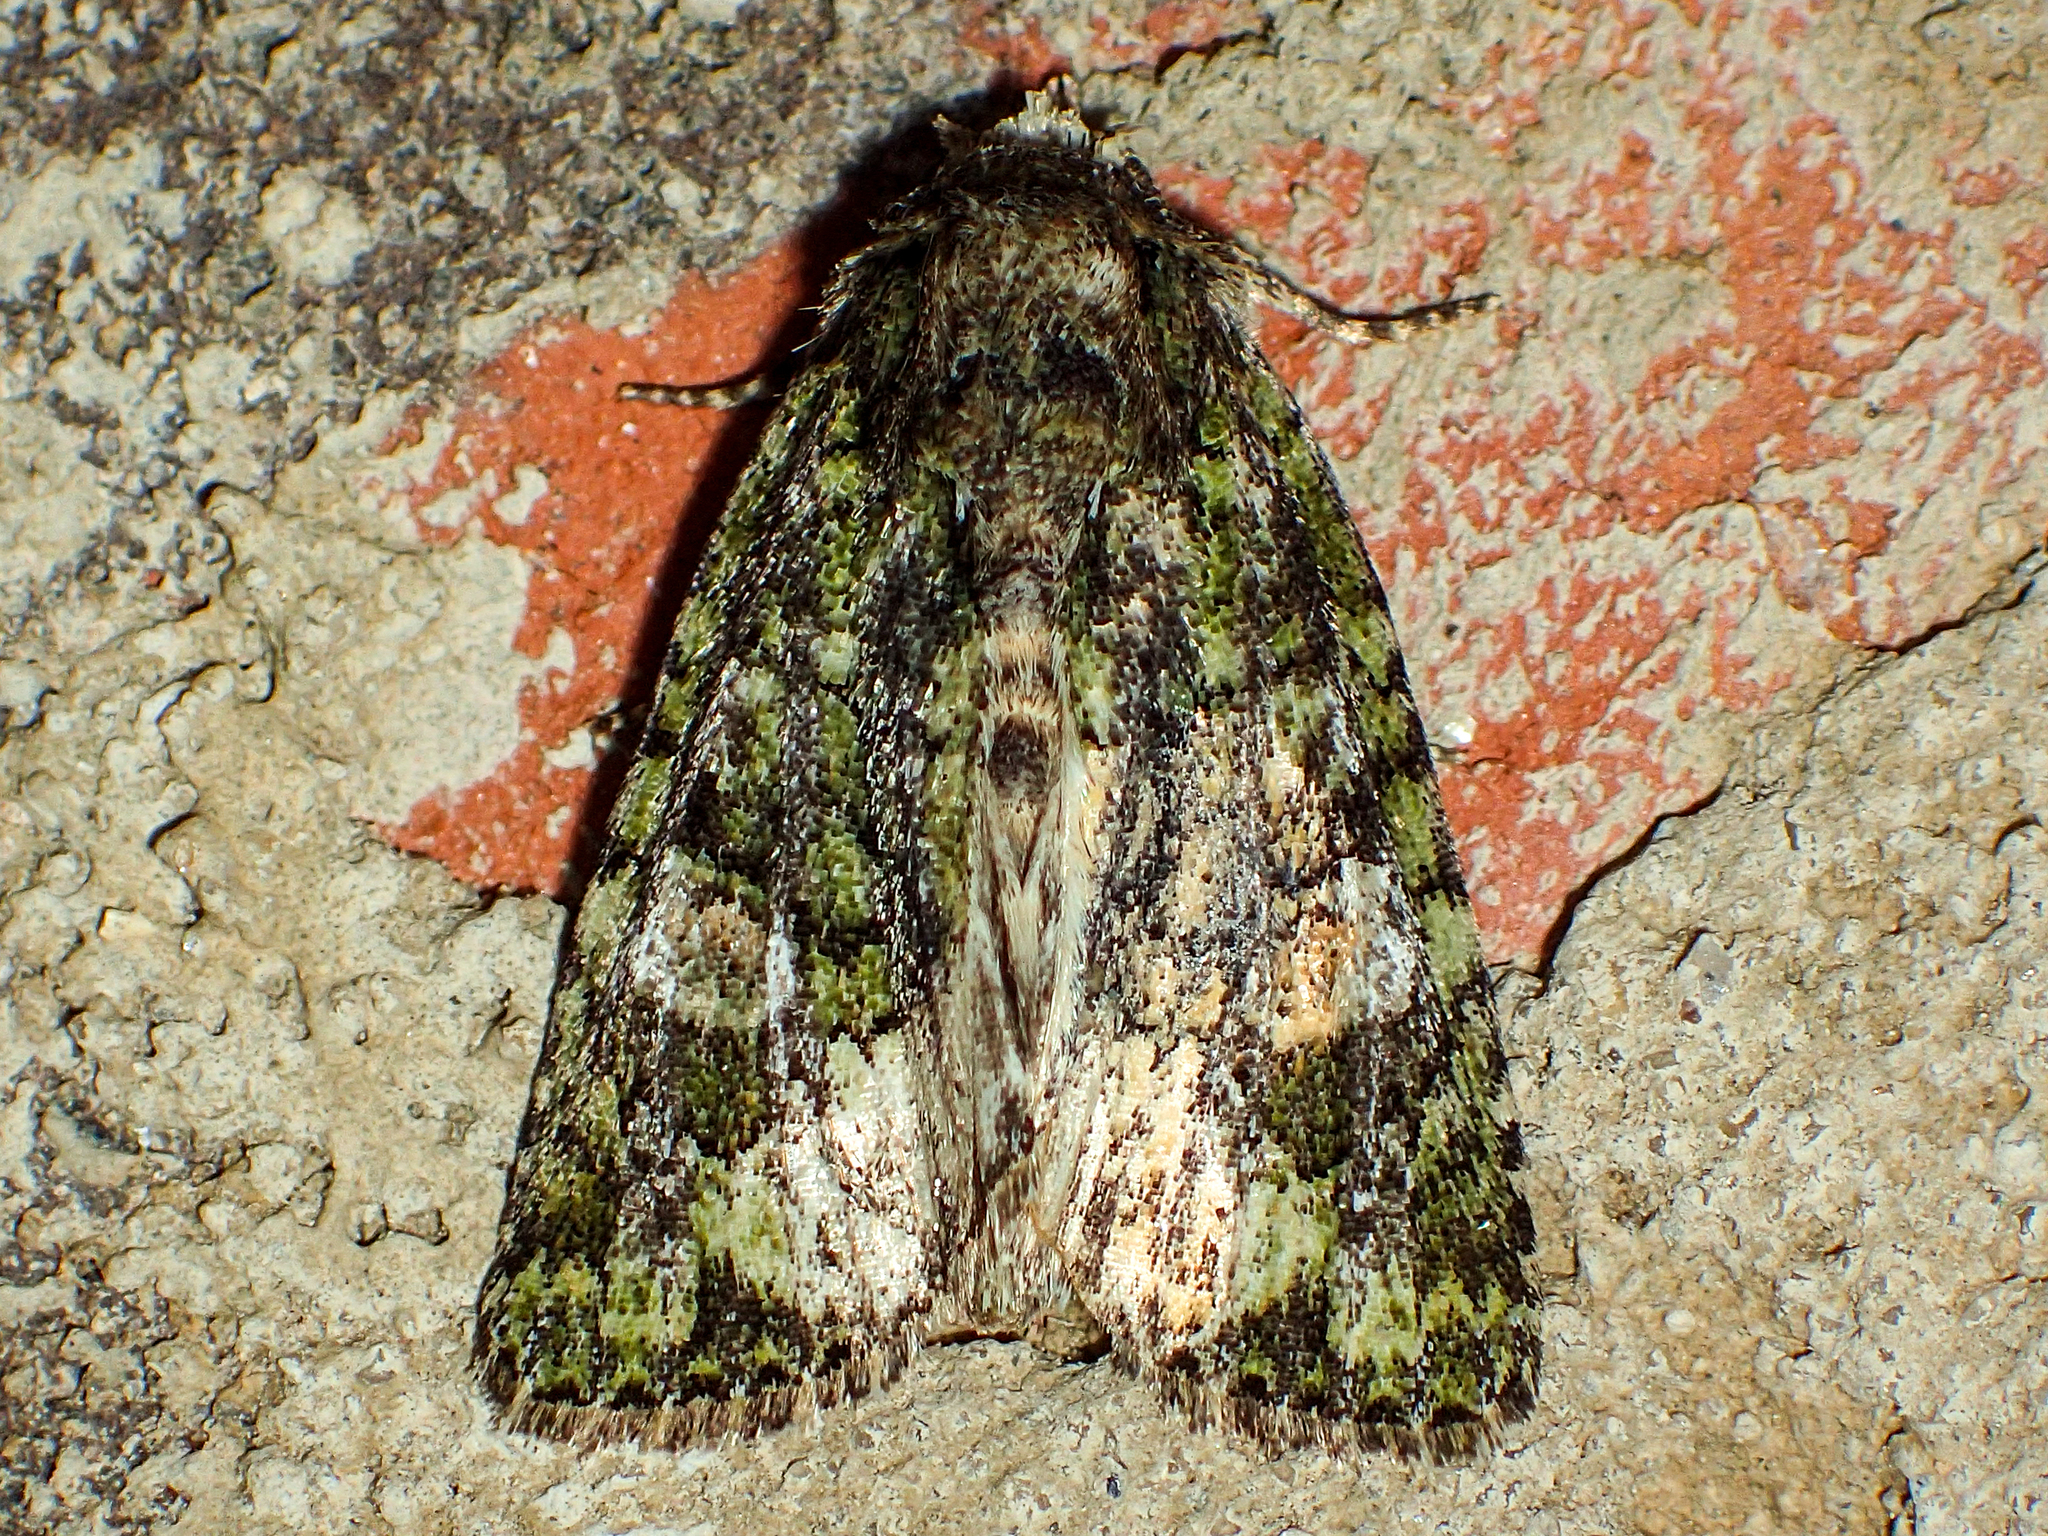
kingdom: Animalia
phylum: Arthropoda
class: Insecta
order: Lepidoptera
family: Noctuidae
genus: Phosphila
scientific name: Phosphila miselioides
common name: Spotted phosphila moth
